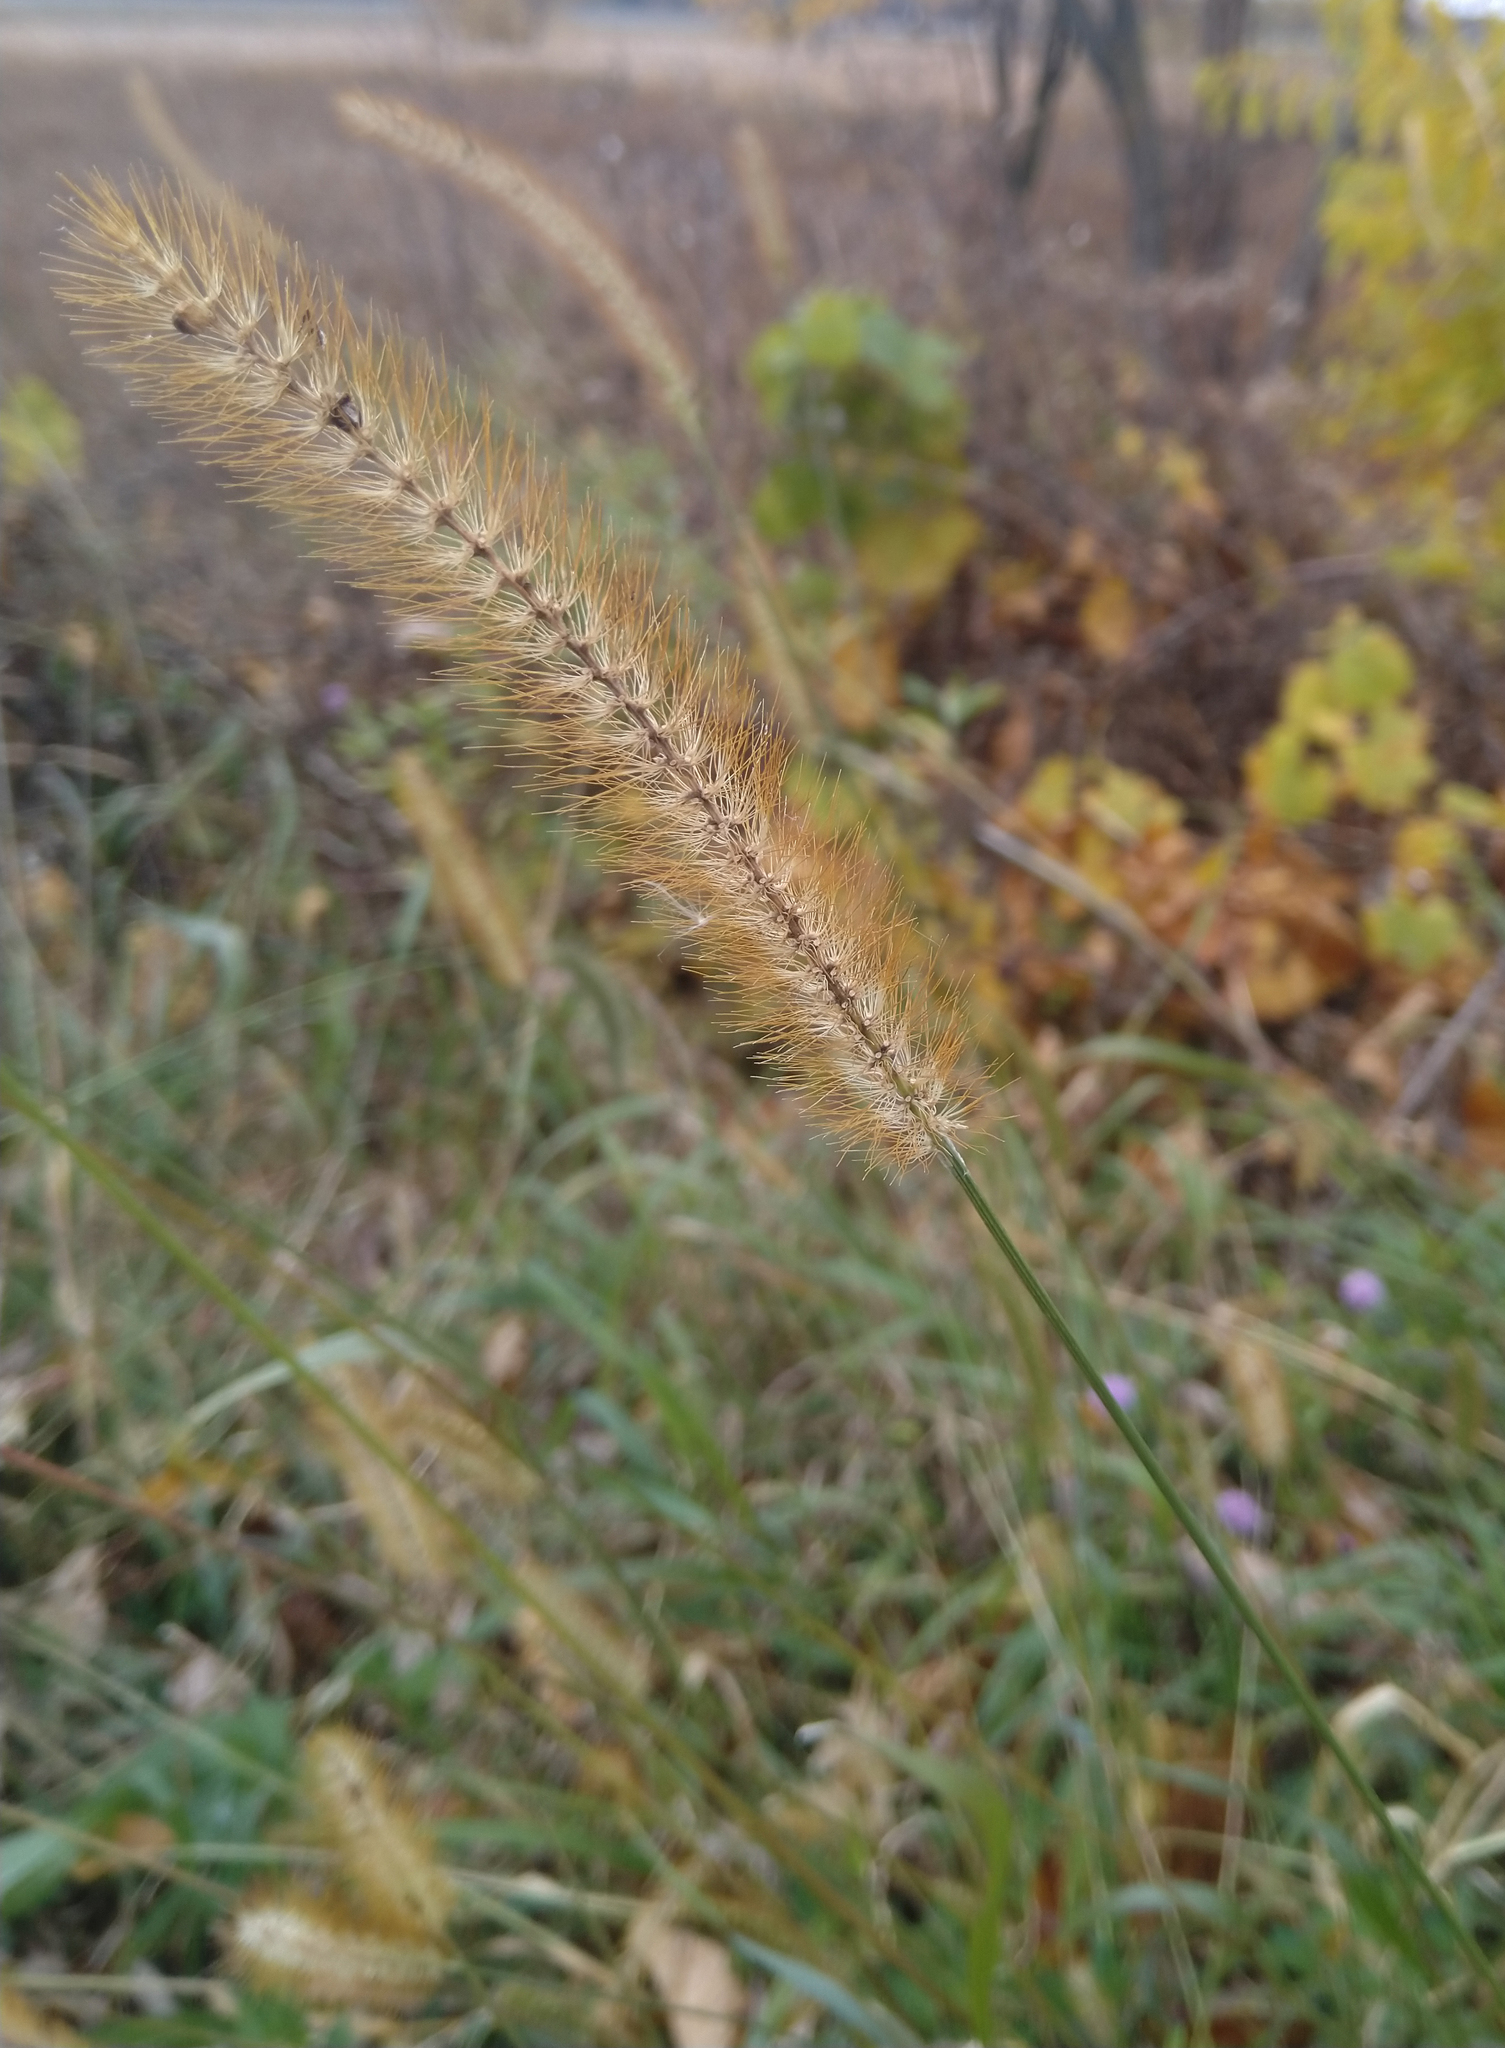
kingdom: Plantae
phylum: Tracheophyta
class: Liliopsida
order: Poales
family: Poaceae
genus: Setaria
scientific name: Setaria pumila
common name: Yellow bristle-grass
